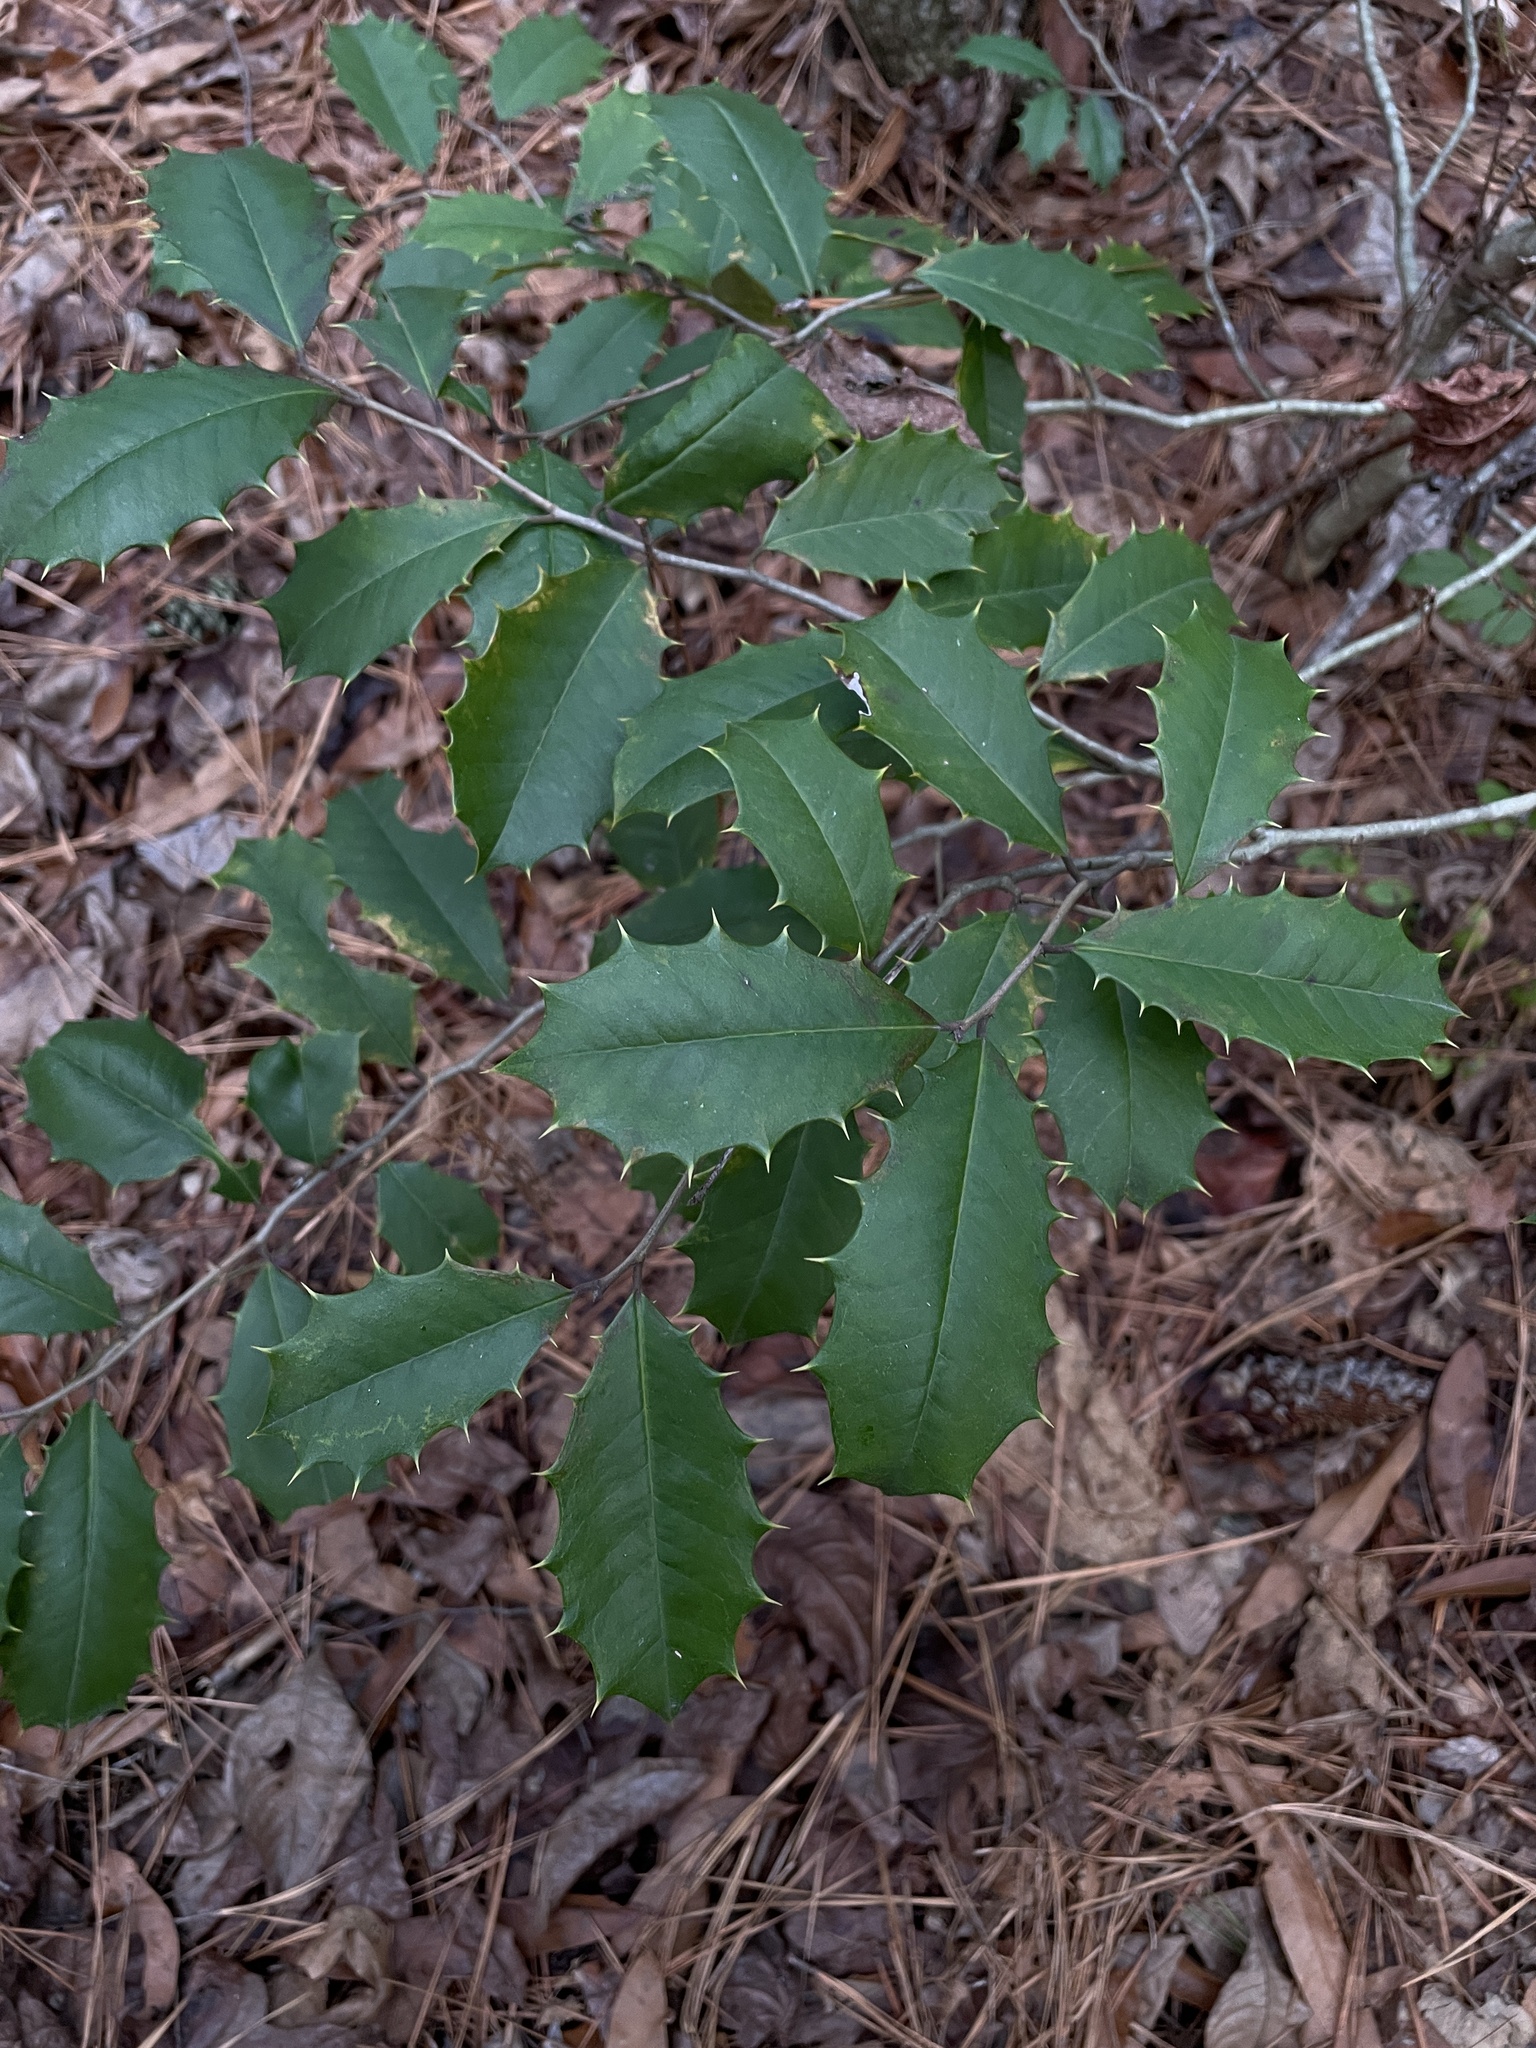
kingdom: Plantae
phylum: Tracheophyta
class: Magnoliopsida
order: Aquifoliales
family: Aquifoliaceae
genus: Ilex
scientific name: Ilex opaca
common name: American holly
